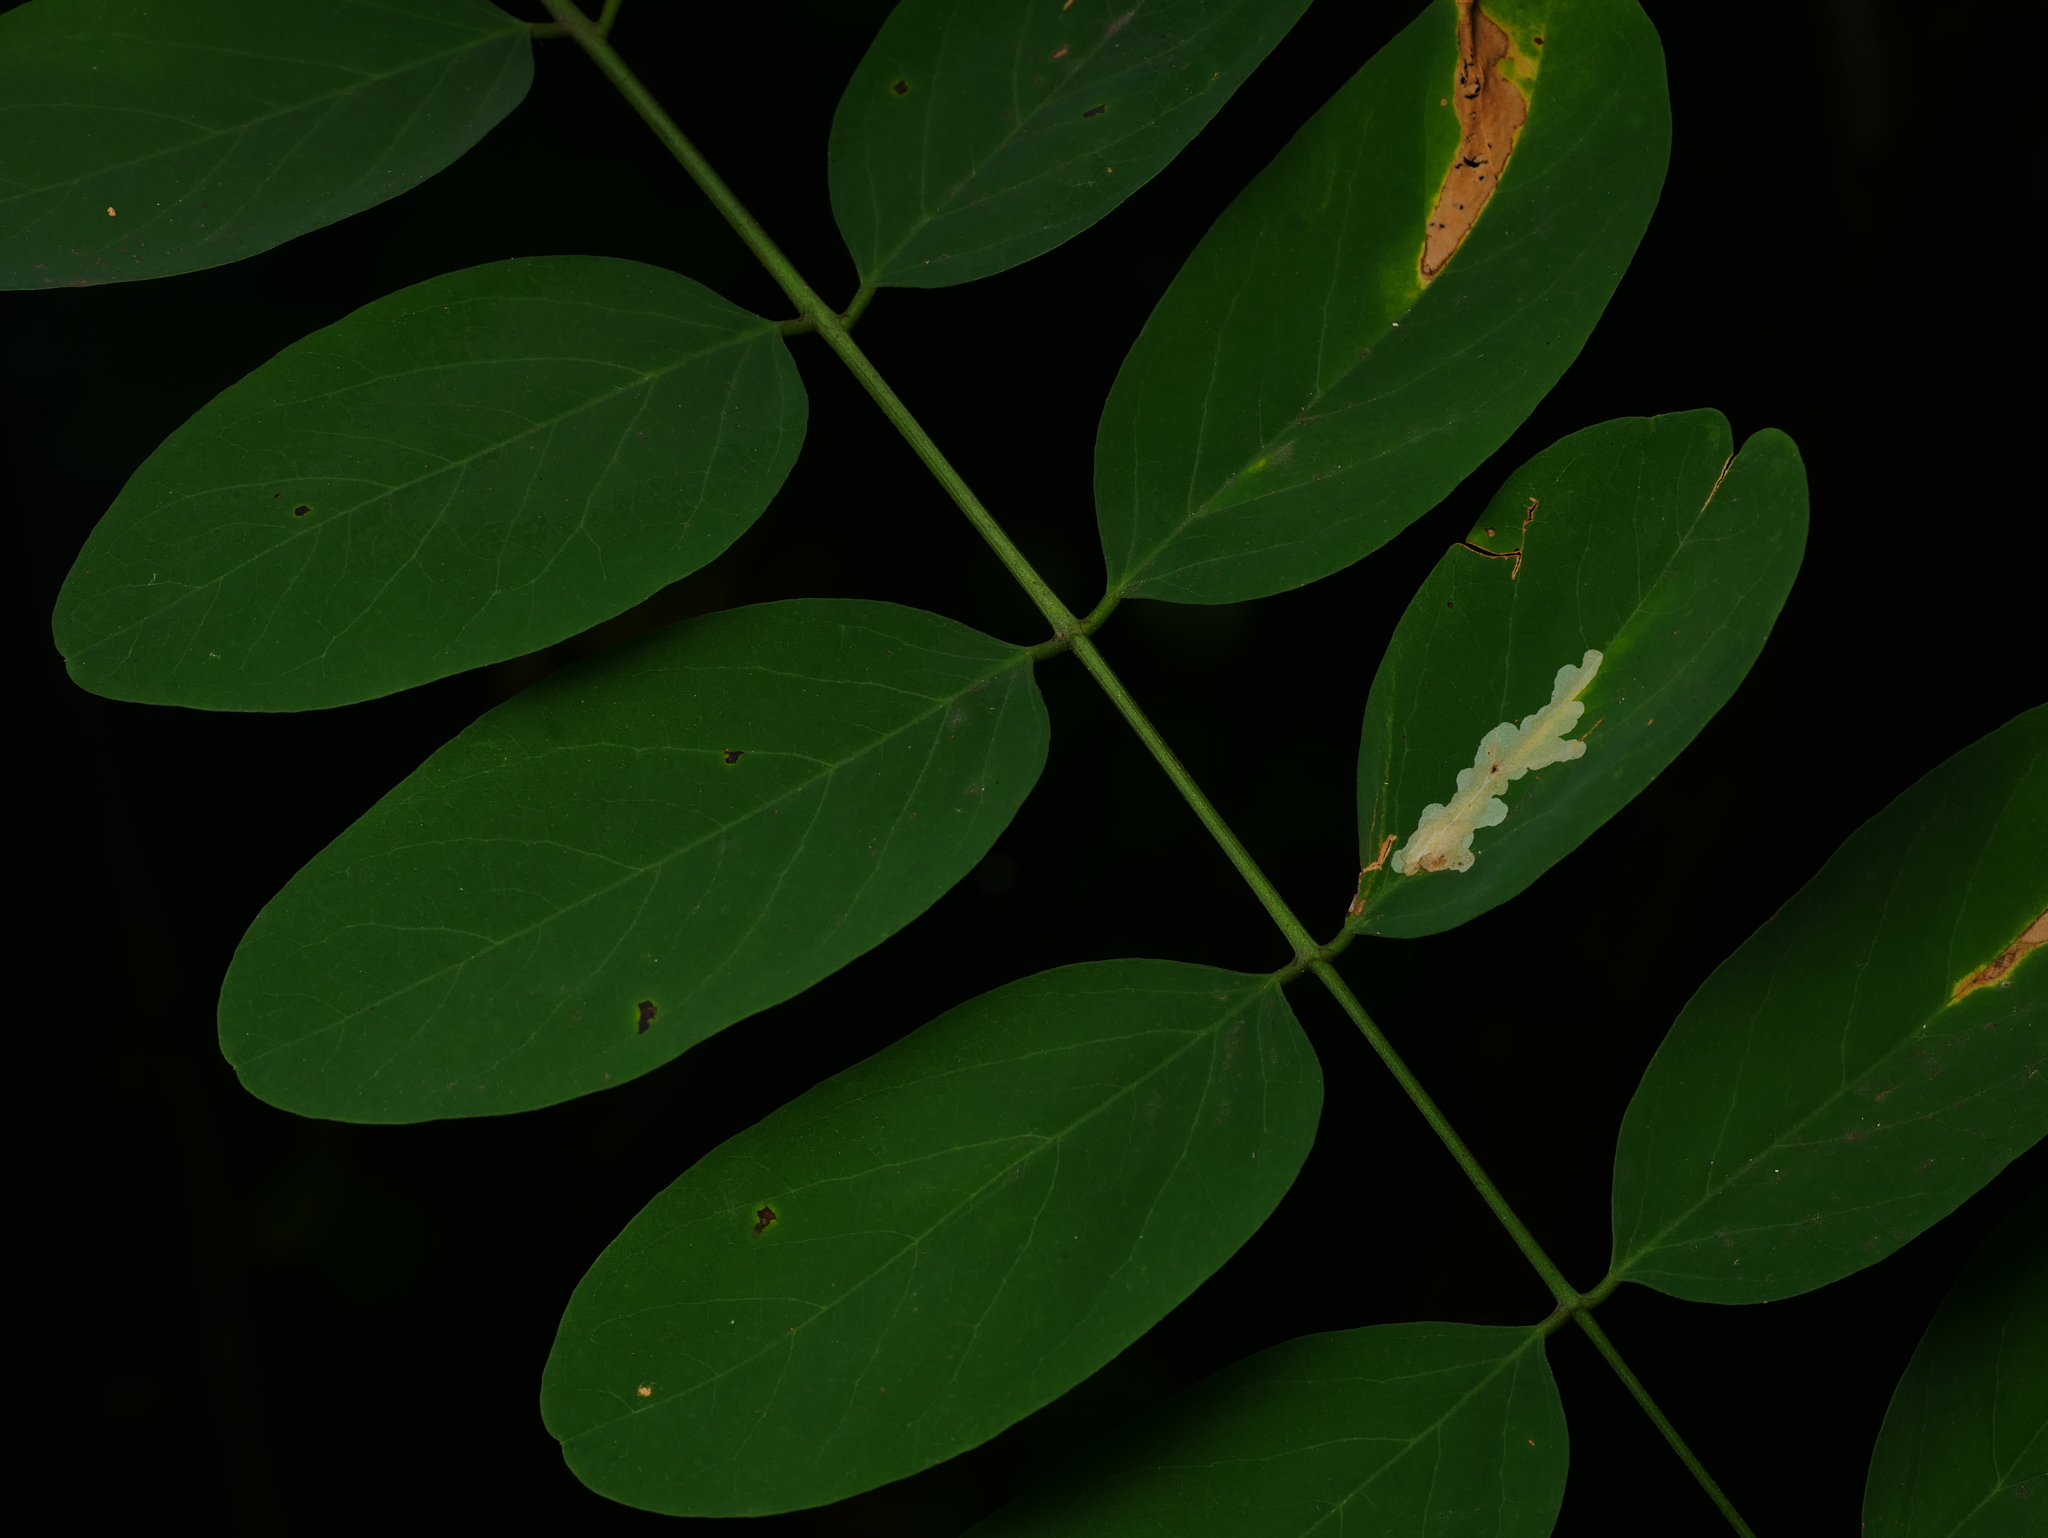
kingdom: Plantae
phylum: Tracheophyta
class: Magnoliopsida
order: Fabales
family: Fabaceae
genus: Robinia
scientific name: Robinia pseudoacacia
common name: Black locust
